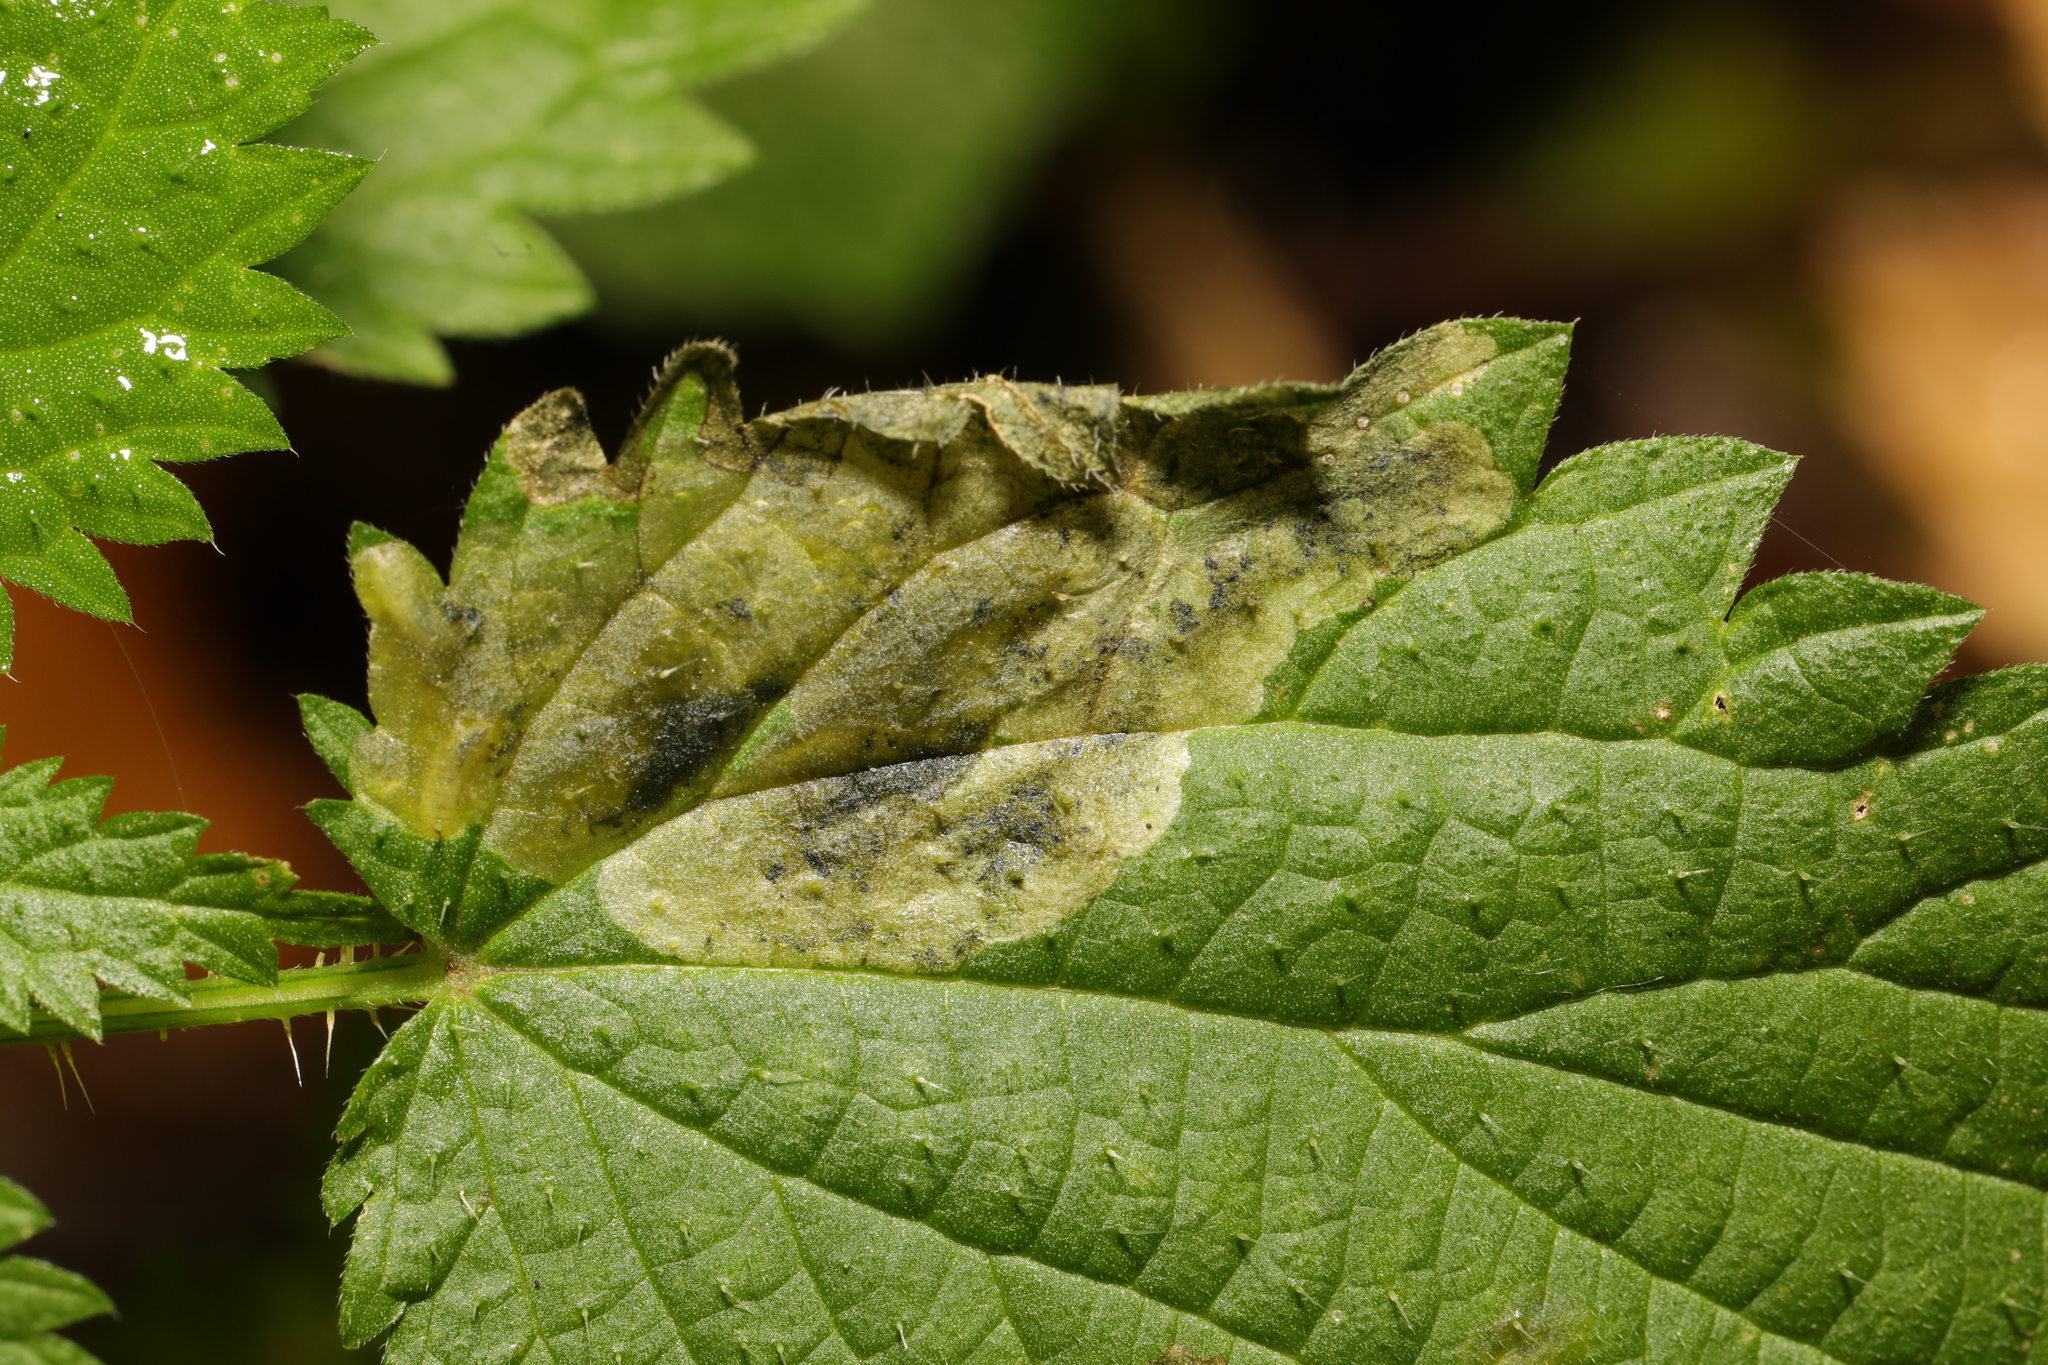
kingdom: Animalia
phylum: Arthropoda
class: Insecta
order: Diptera
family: Agromyzidae
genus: Agromyza
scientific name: Agromyza anthracina
